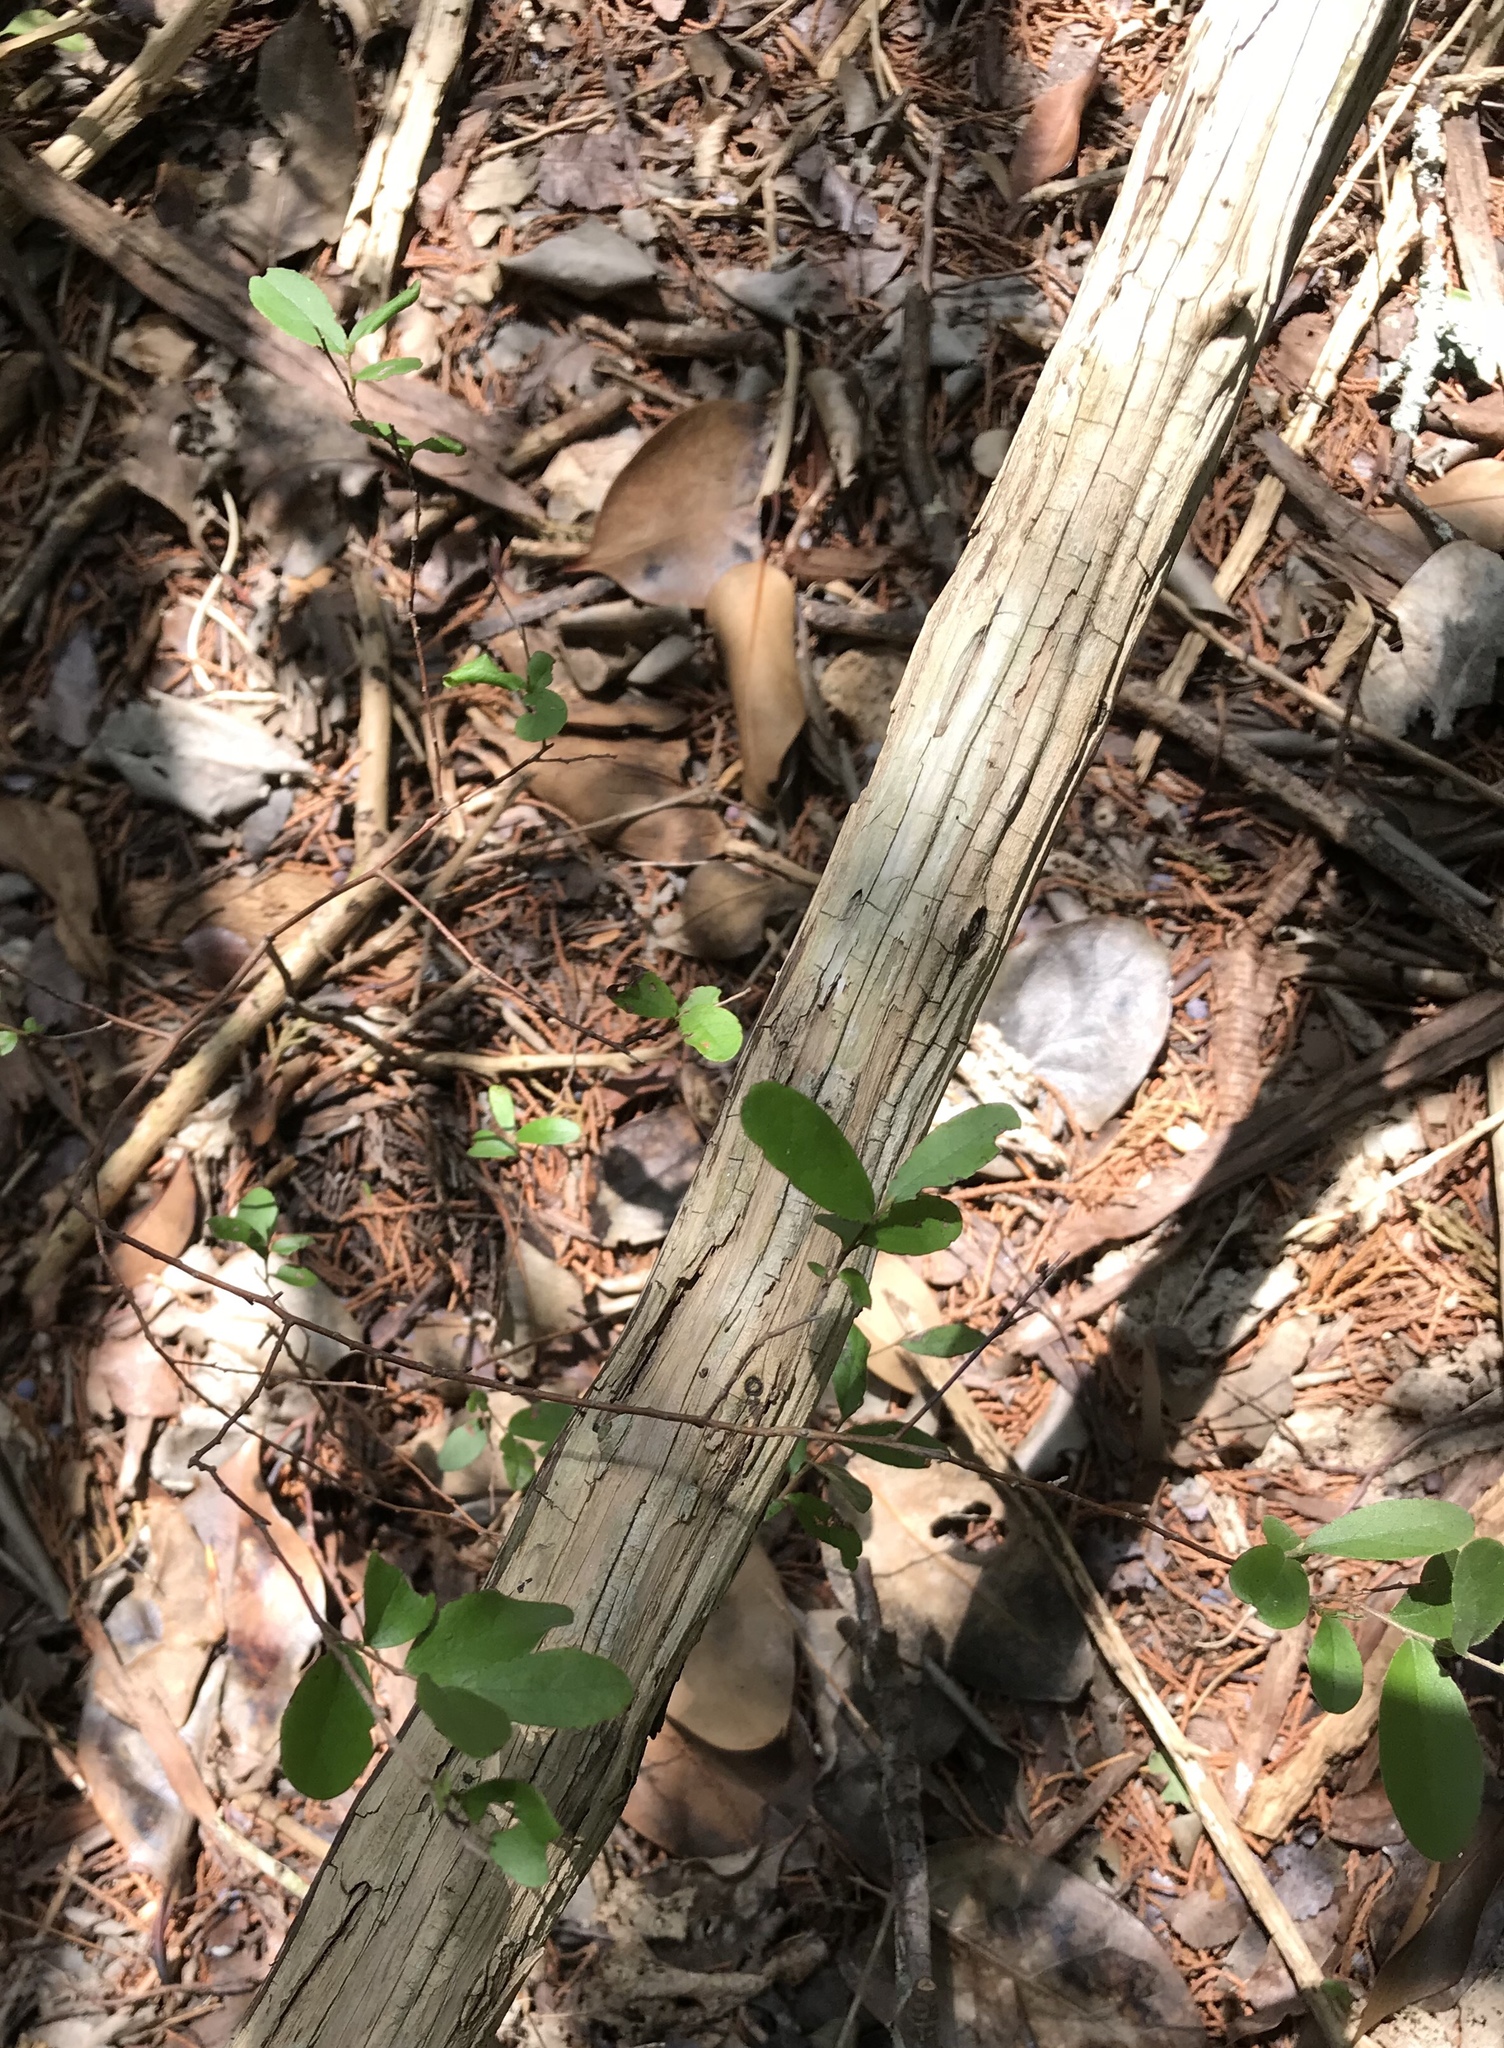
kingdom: Plantae
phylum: Tracheophyta
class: Magnoliopsida
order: Ericales
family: Ebenaceae
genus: Diospyros
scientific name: Diospyros texana
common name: Texas persimmon
